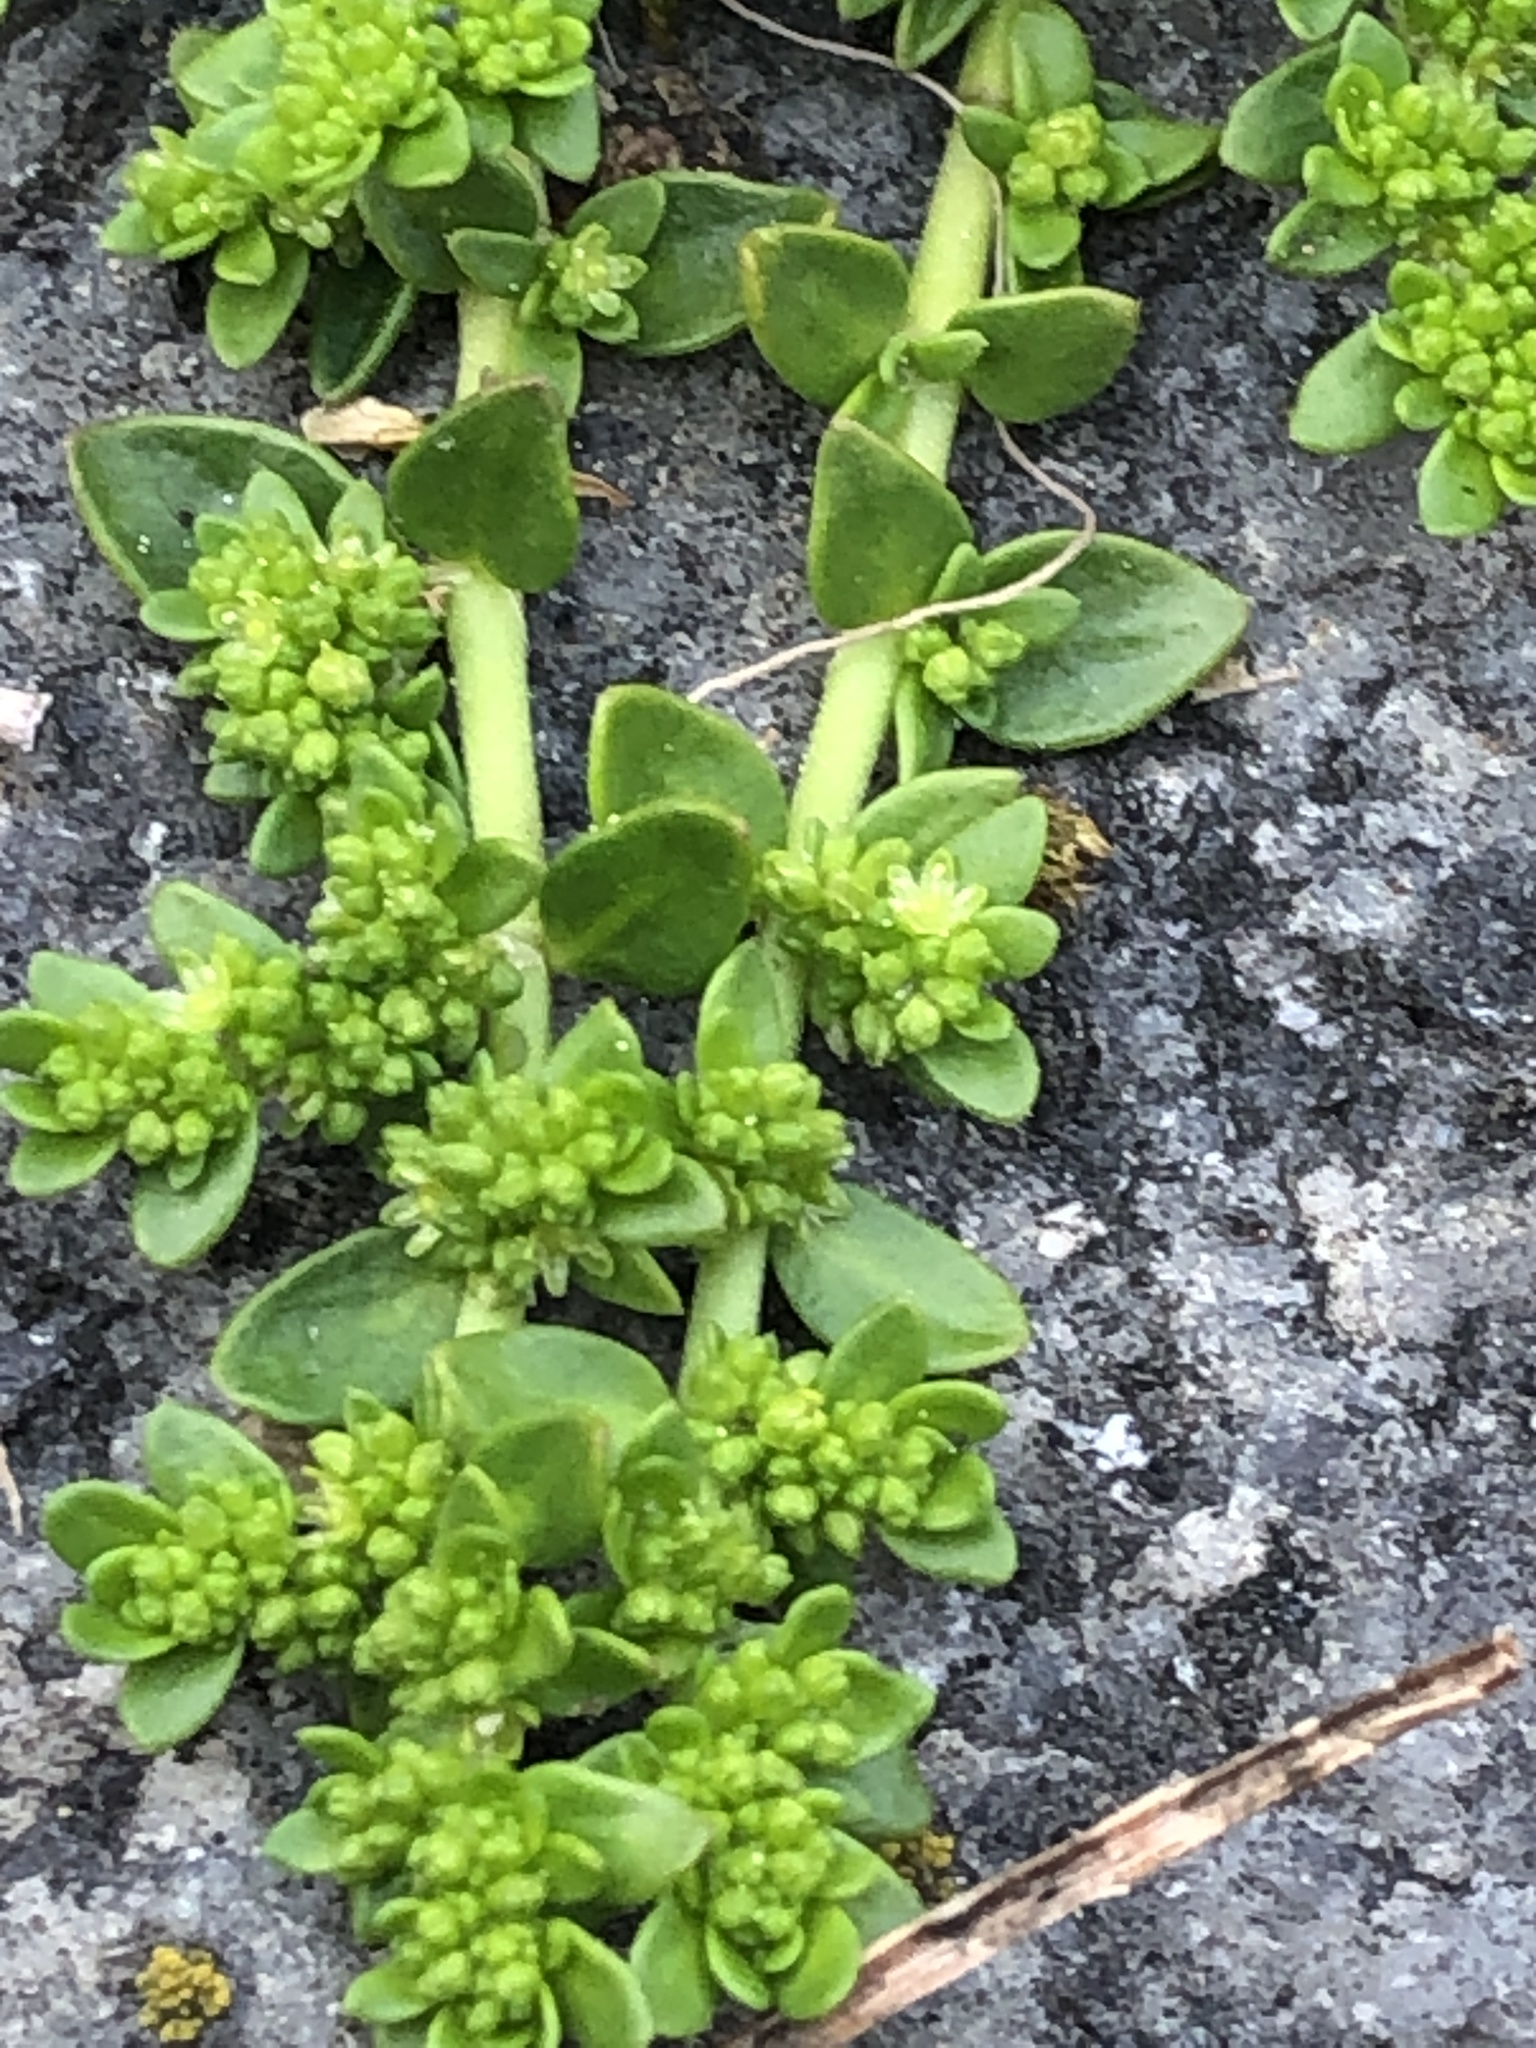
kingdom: Plantae
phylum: Tracheophyta
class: Magnoliopsida
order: Caryophyllales
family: Caryophyllaceae
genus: Herniaria
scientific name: Herniaria glabra
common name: Smooth rupturewort
